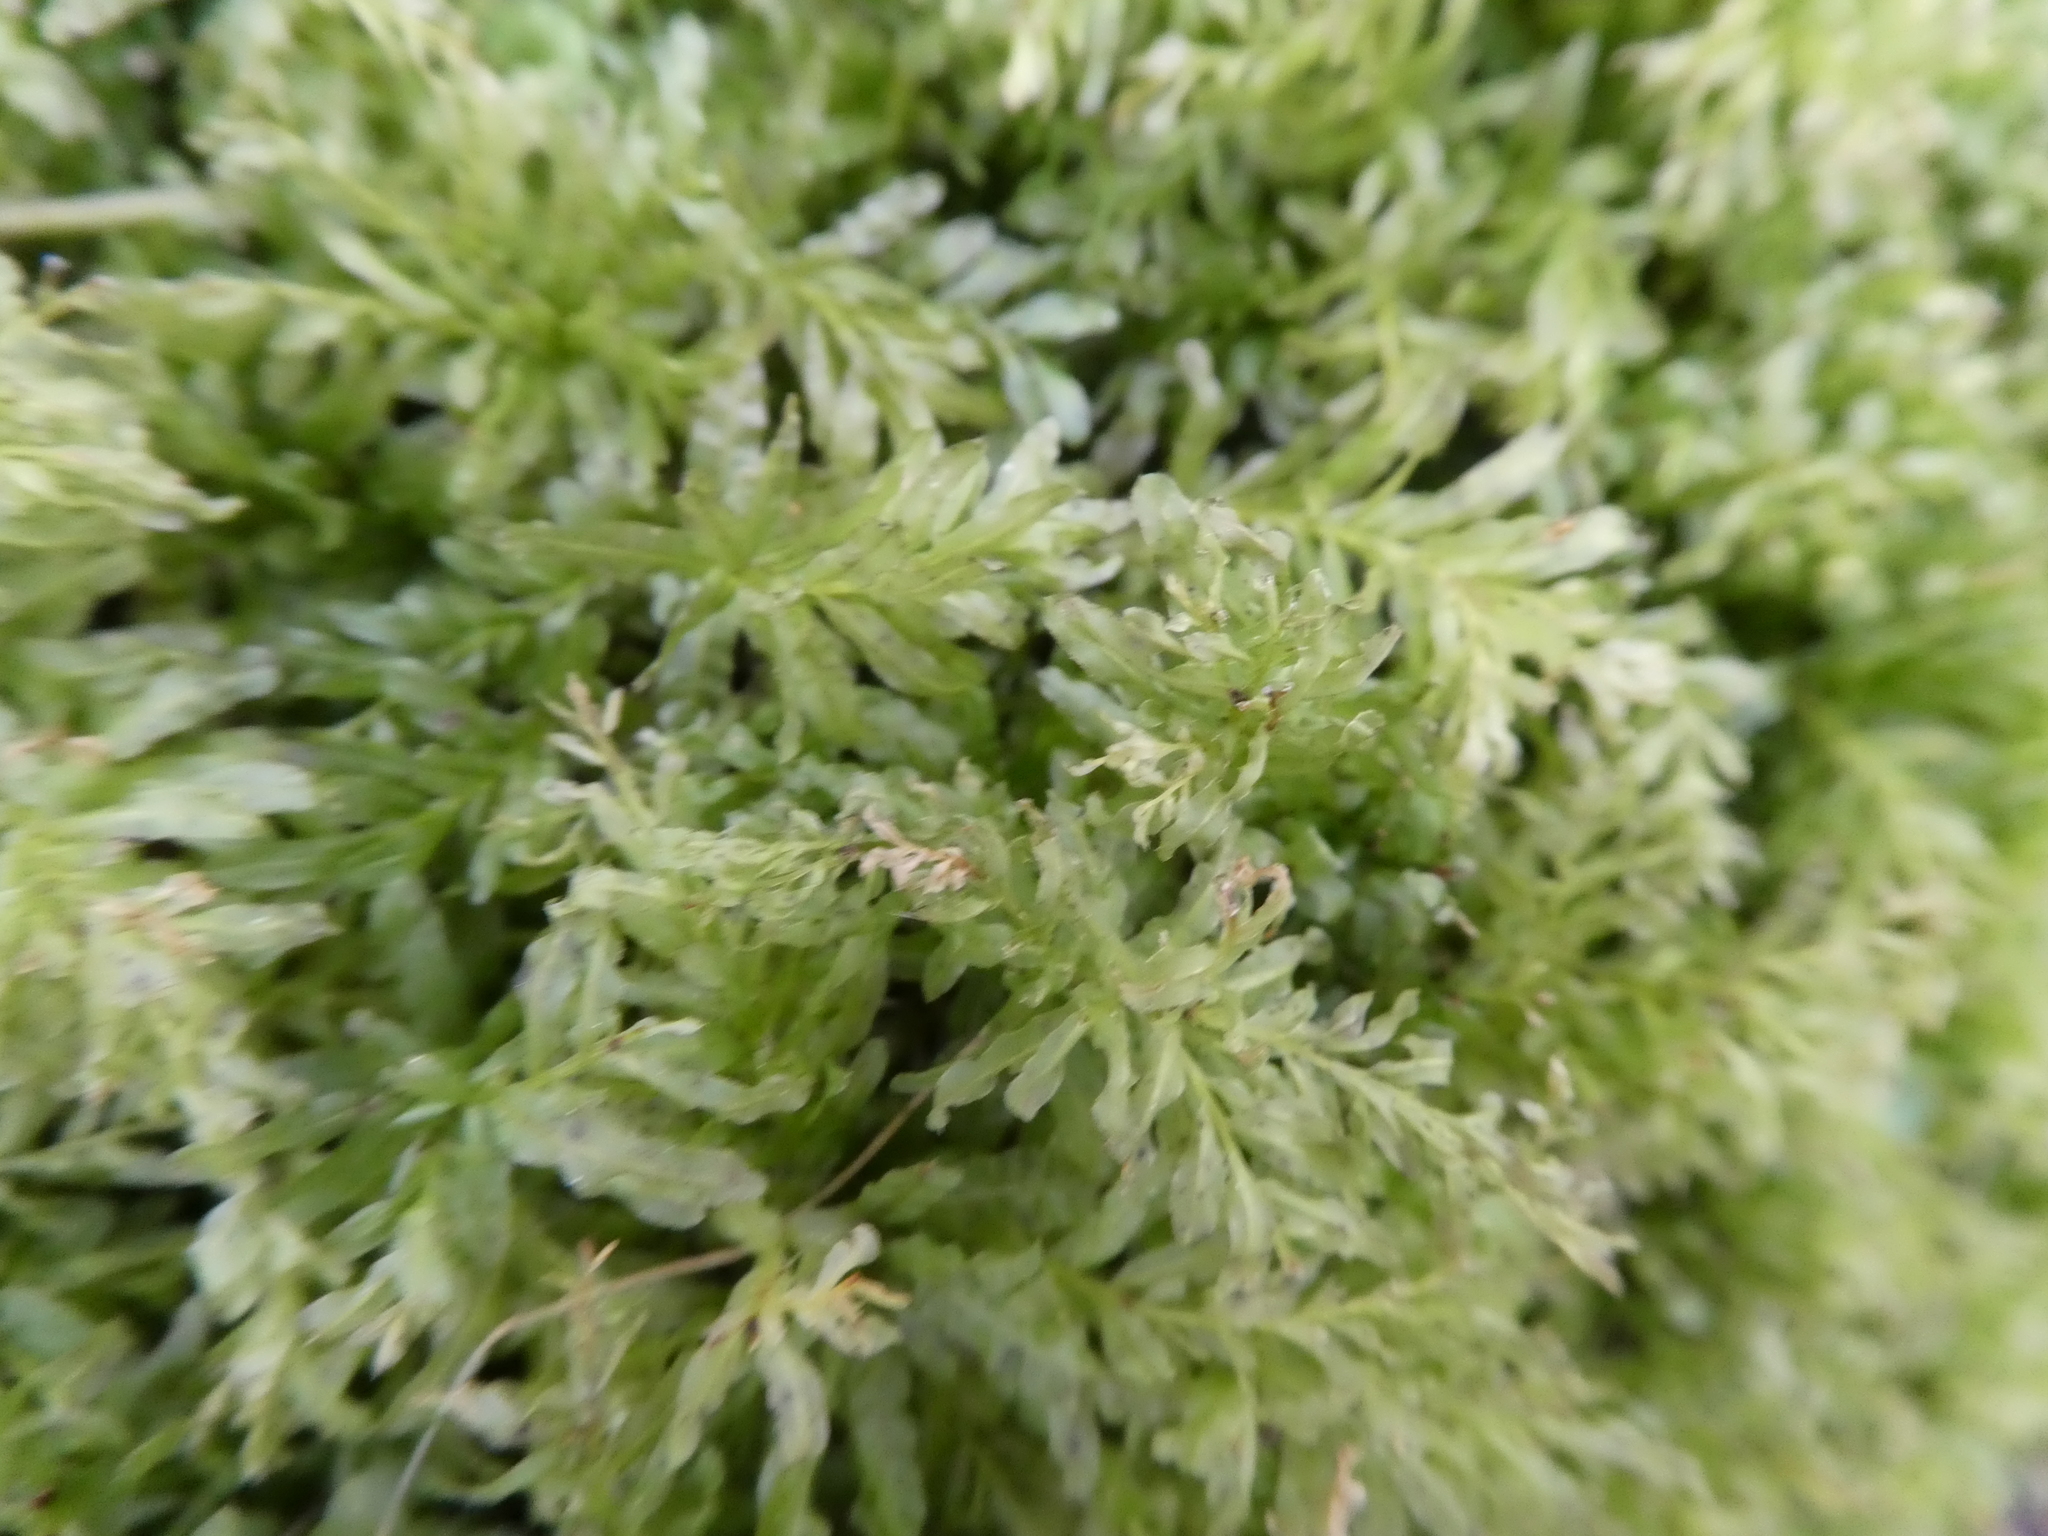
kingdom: Plantae
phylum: Bryophyta
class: Bryopsida
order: Bryales
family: Mniaceae
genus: Plagiomnium
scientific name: Plagiomnium undulatum
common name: Hart's-tongue thyme-moss
